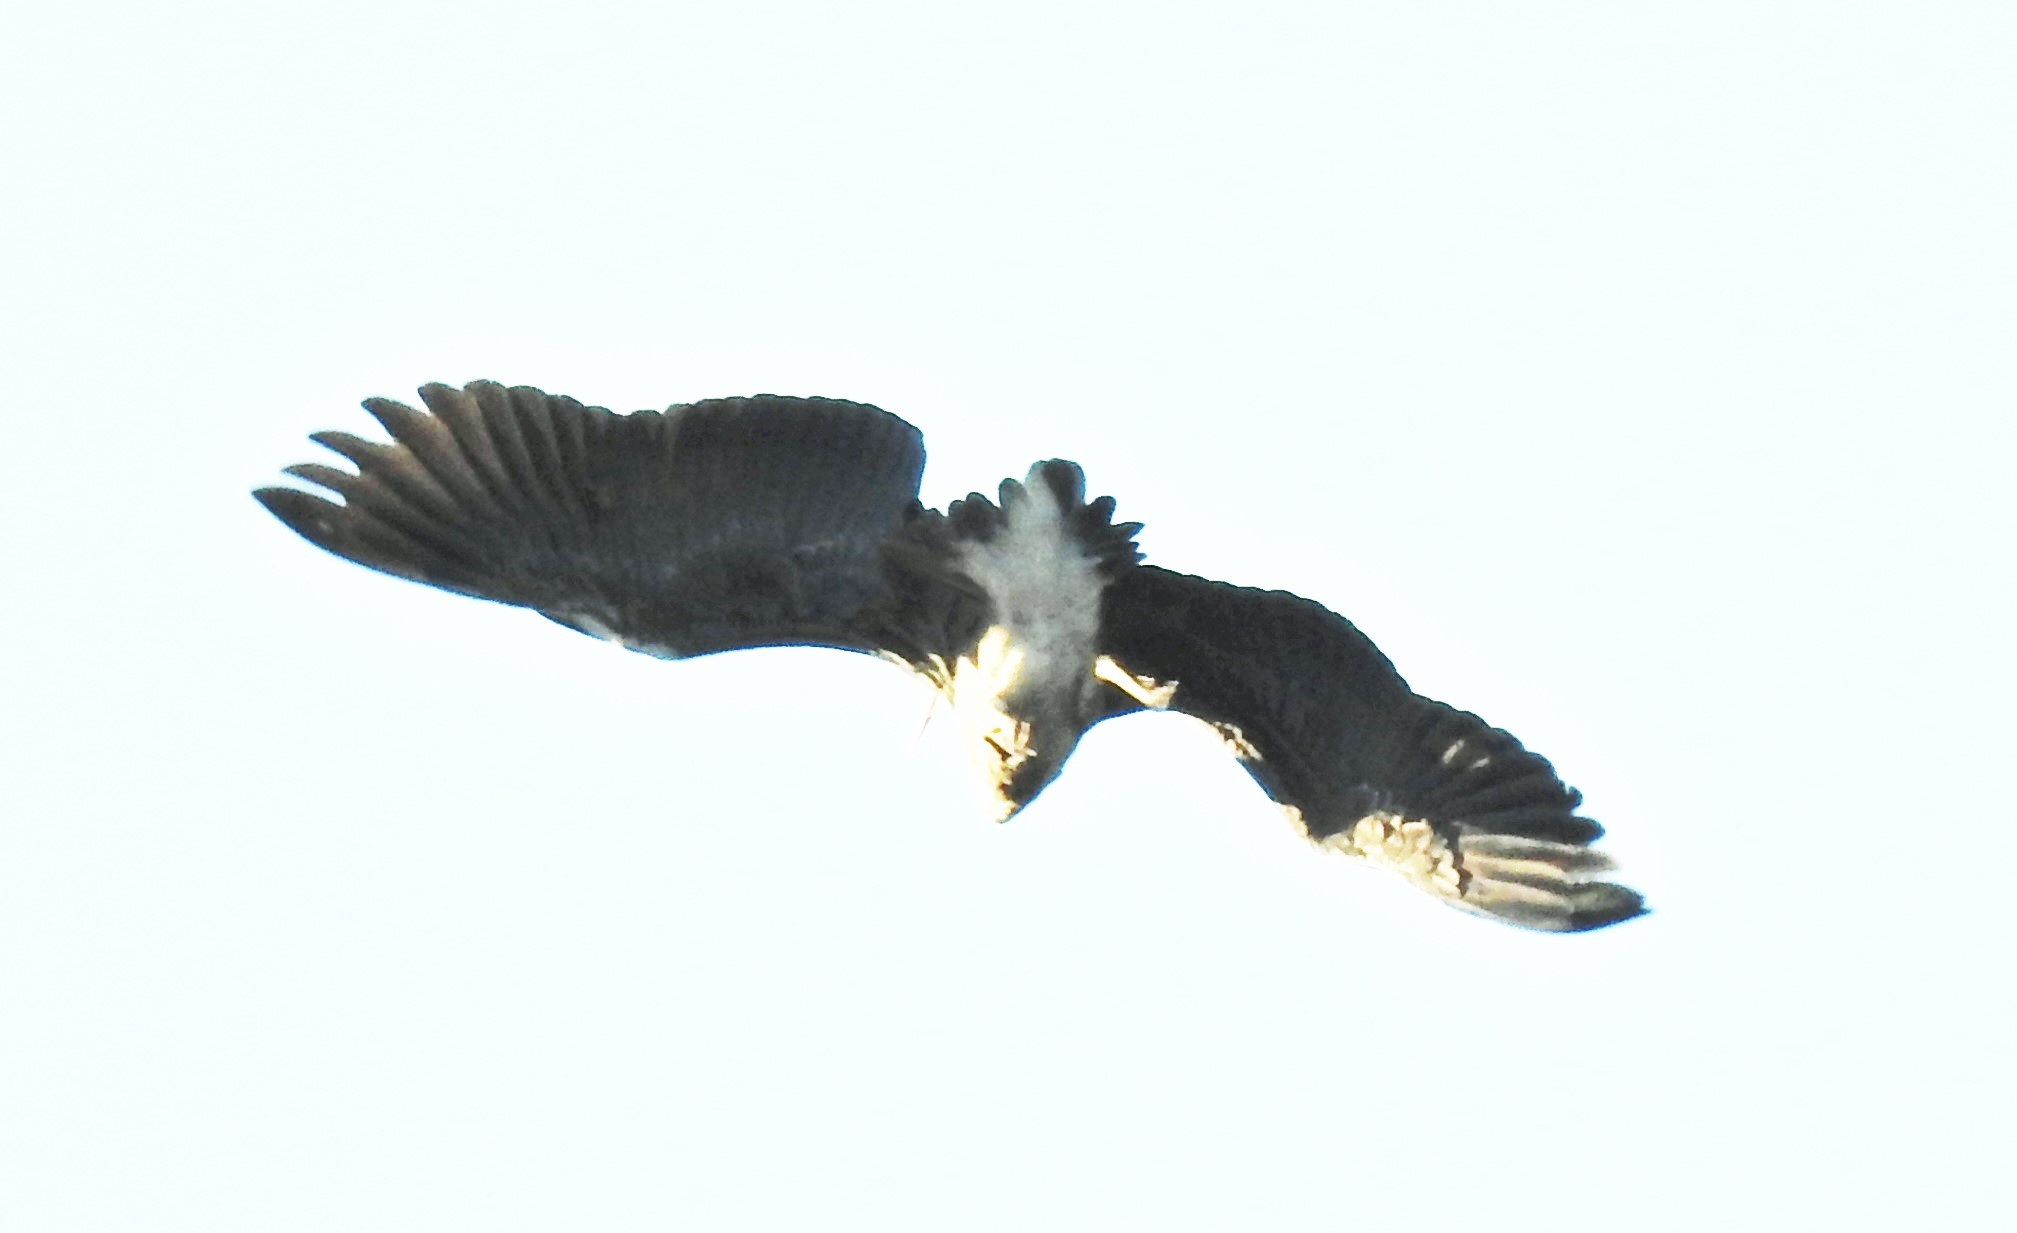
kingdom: Animalia
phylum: Chordata
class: Aves
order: Pelecaniformes
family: Ardeidae
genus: Ardea
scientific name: Ardea cinerea
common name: Grey heron
